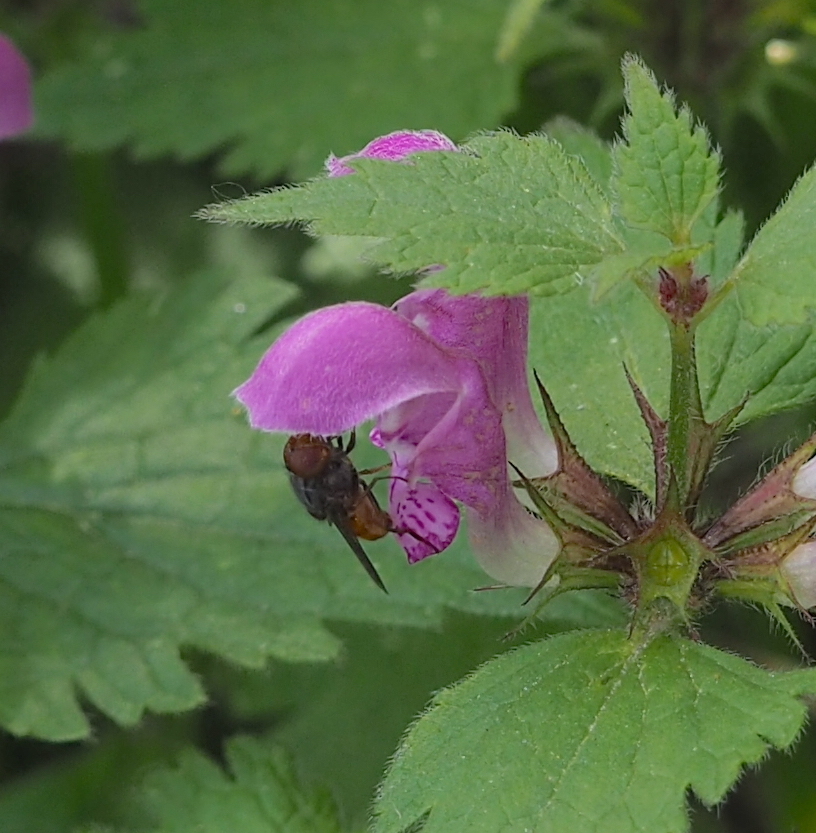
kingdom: Animalia
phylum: Arthropoda
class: Insecta
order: Diptera
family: Syrphidae
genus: Rhingia
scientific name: Rhingia rostrata
